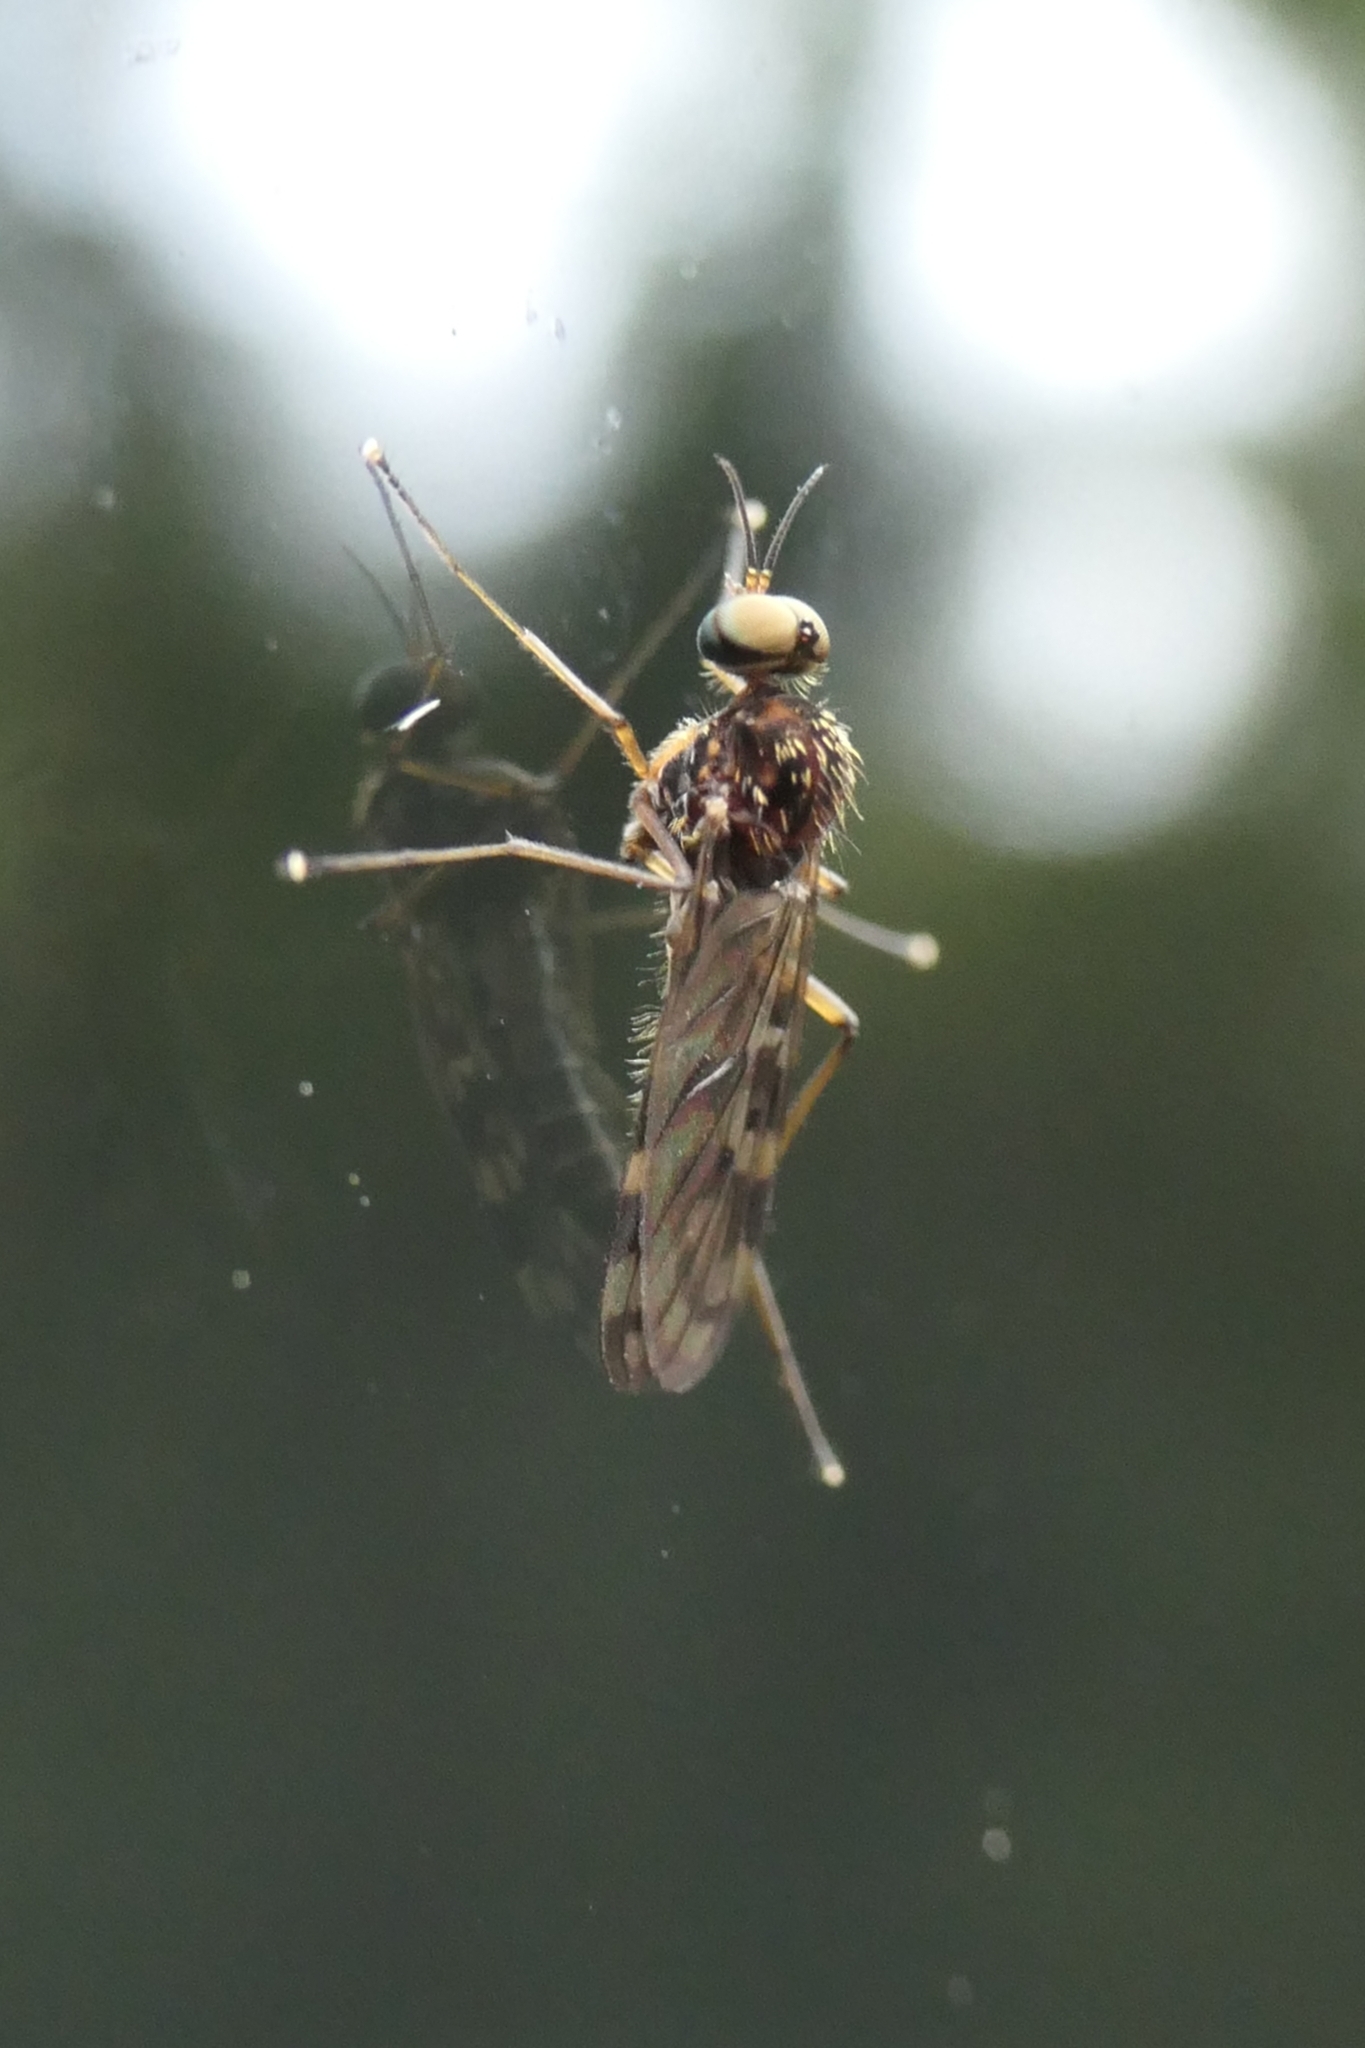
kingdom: Animalia
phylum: Arthropoda
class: Insecta
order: Diptera
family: Anisopodidae
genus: Sylvicola
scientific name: Sylvicola dubius
